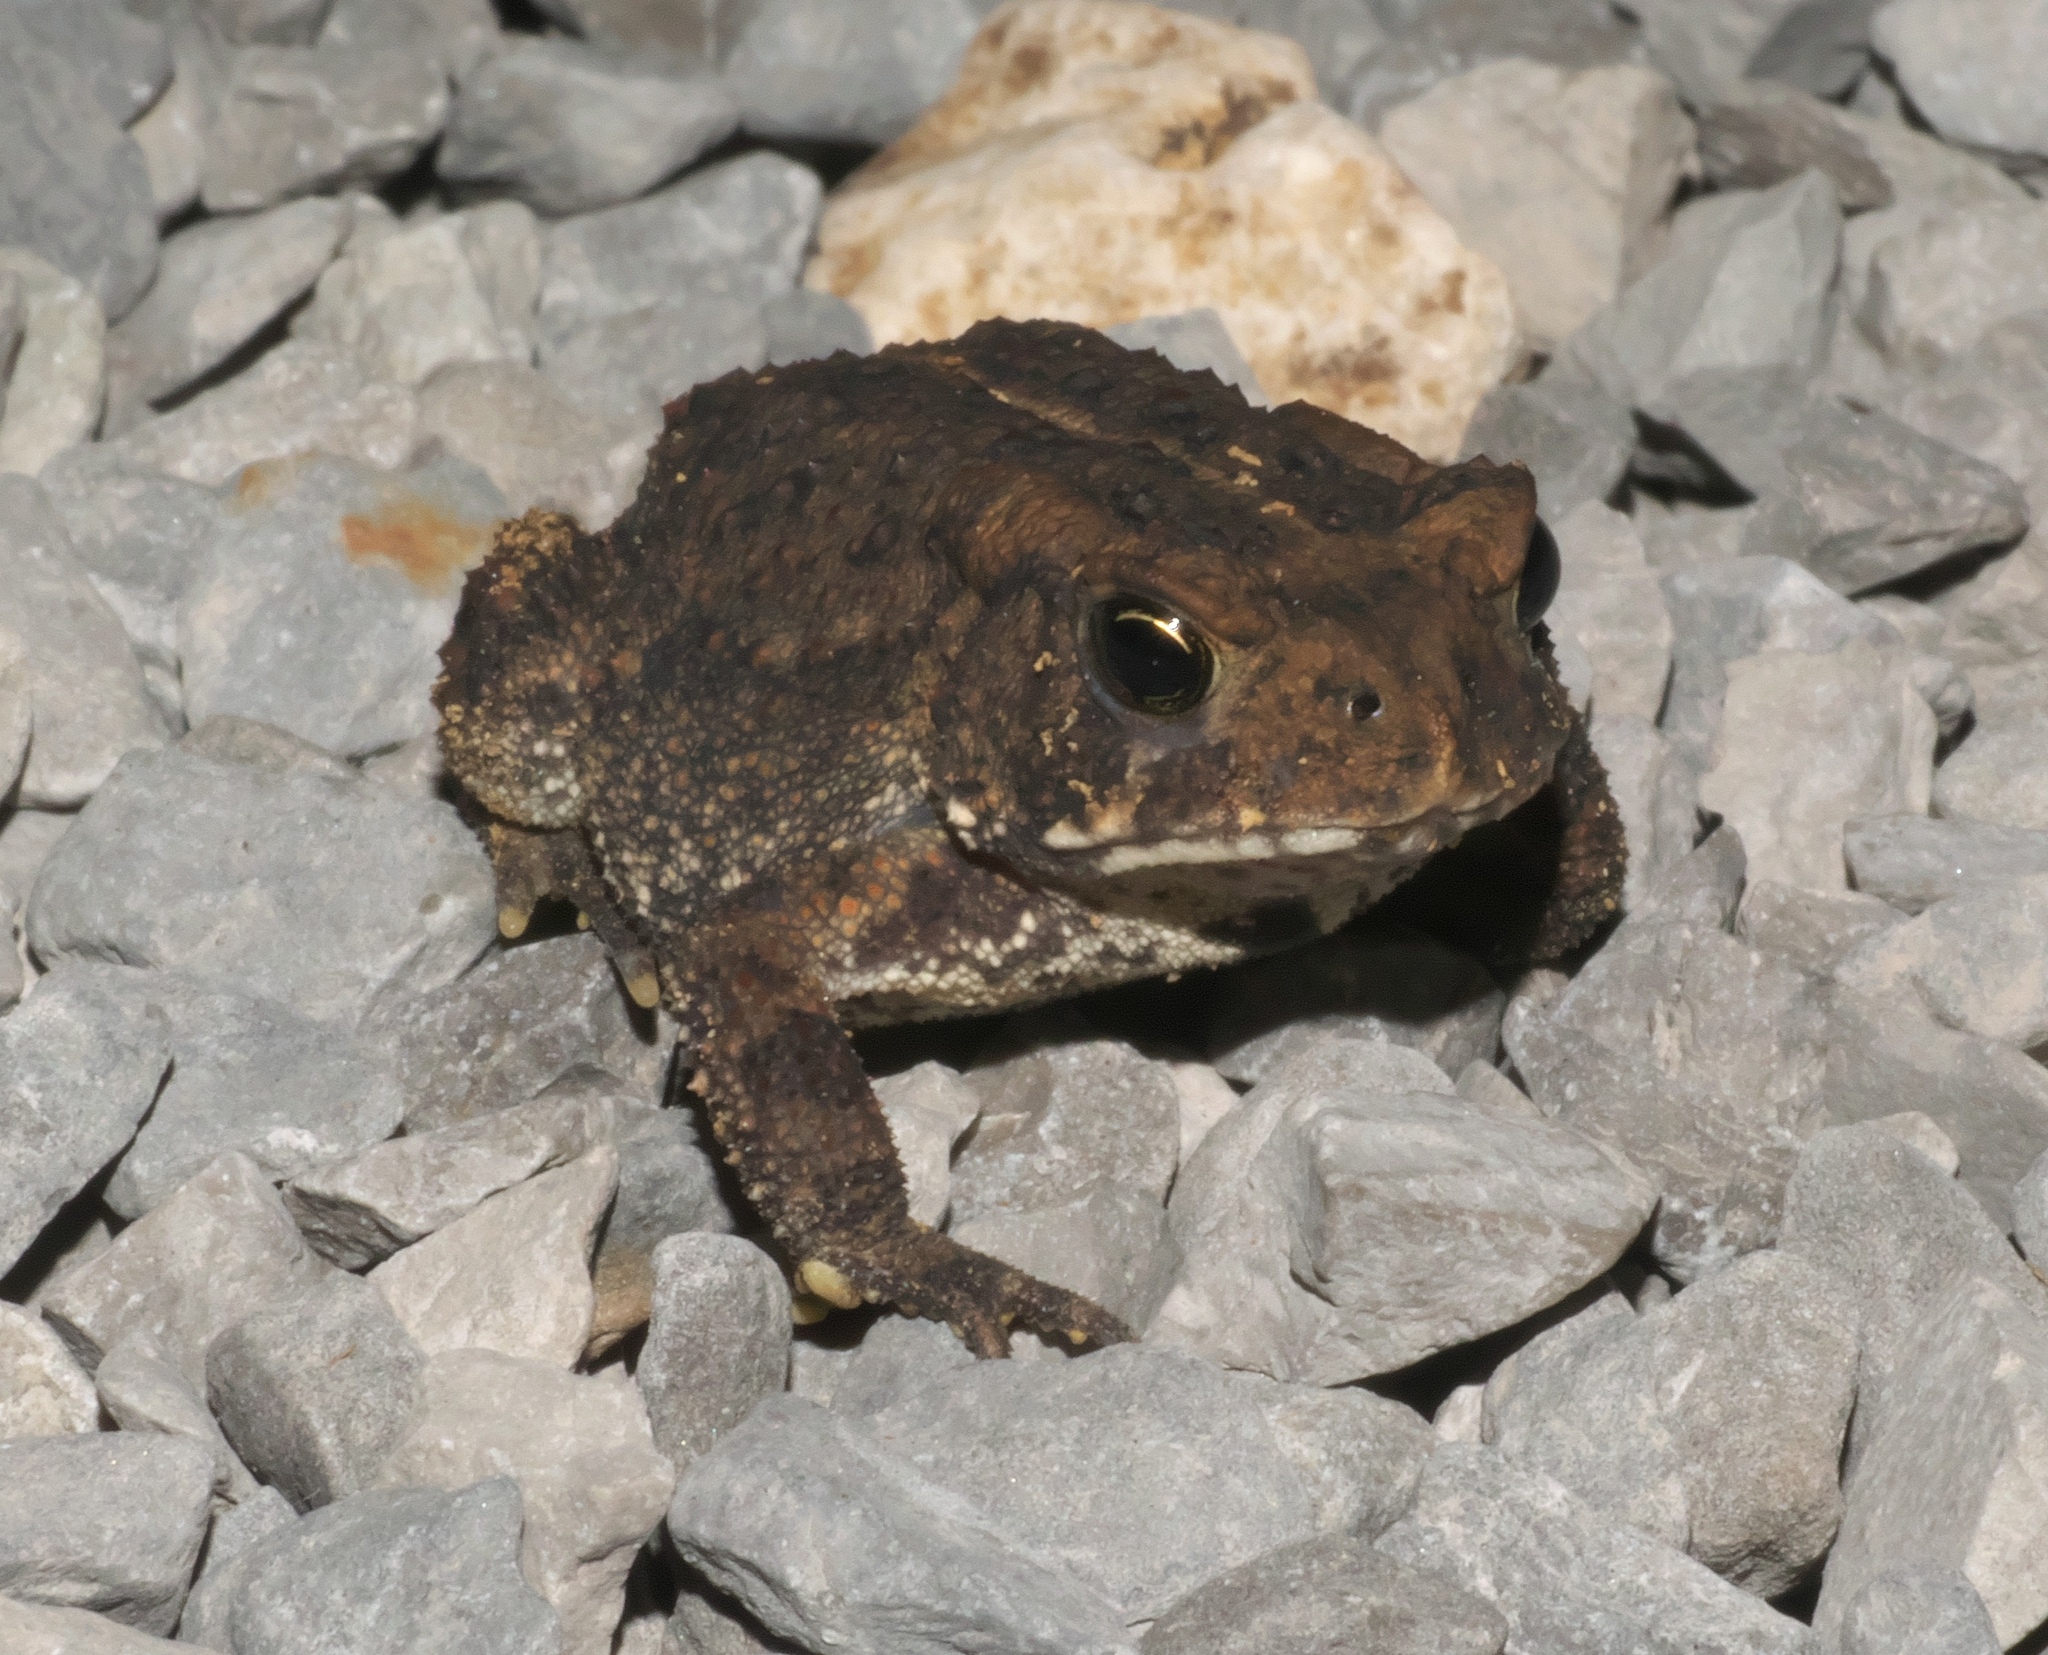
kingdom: Animalia
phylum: Chordata
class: Amphibia
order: Anura
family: Bufonidae
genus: Anaxyrus
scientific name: Anaxyrus americanus
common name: American toad
